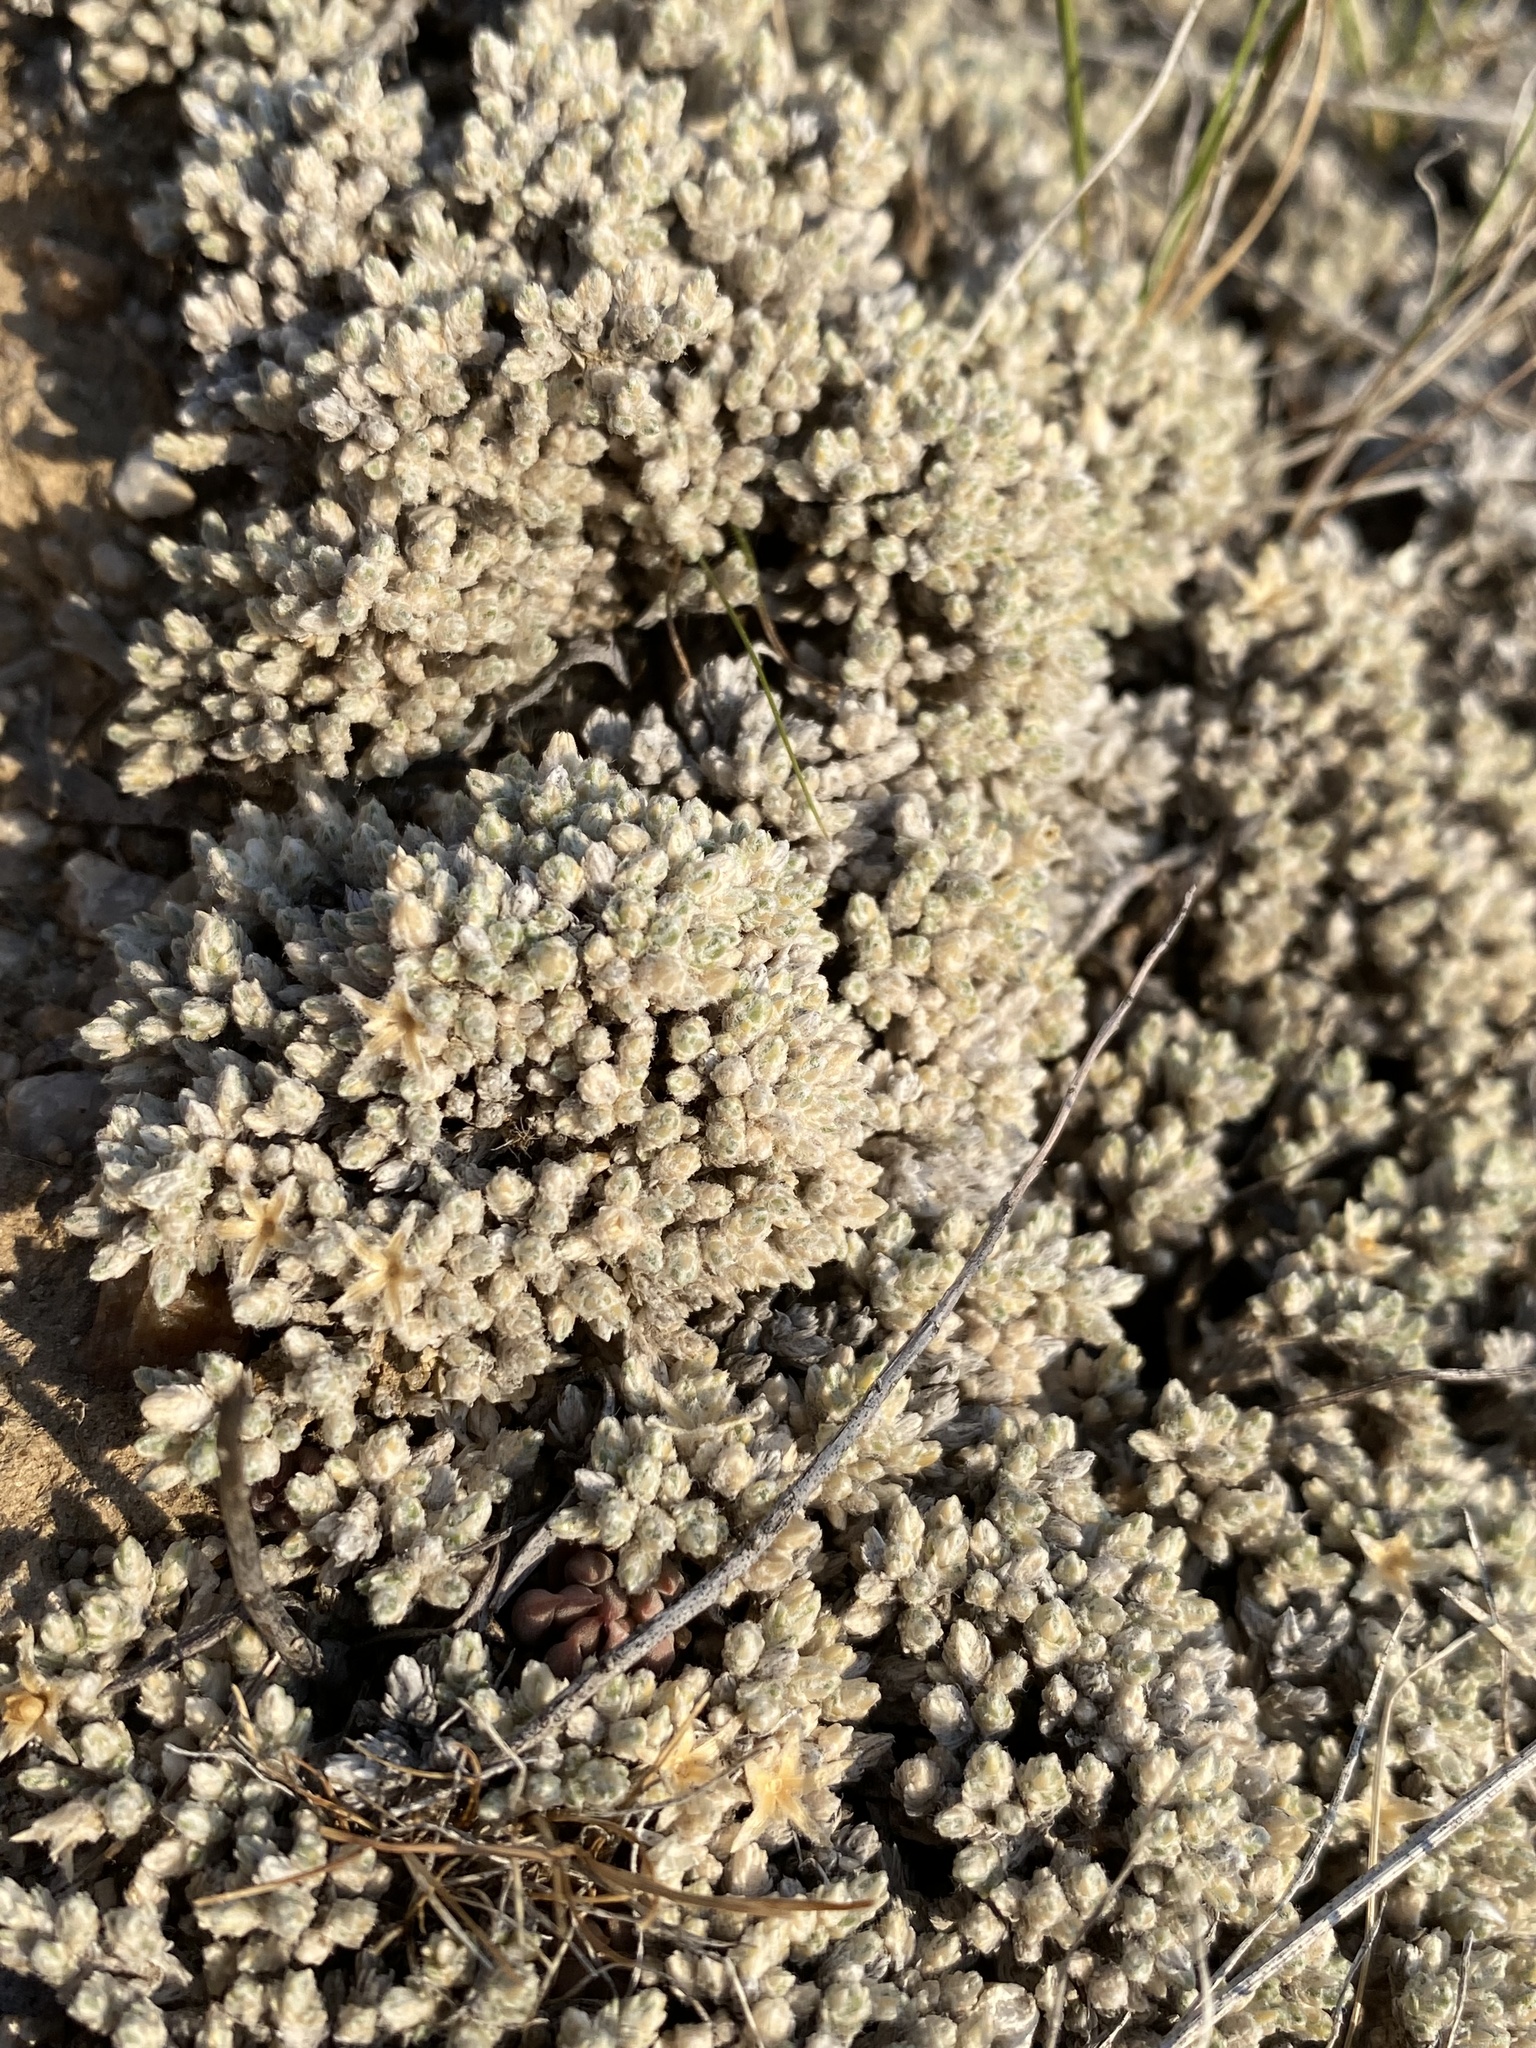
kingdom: Plantae
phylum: Tracheophyta
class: Magnoliopsida
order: Ericales
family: Polemoniaceae
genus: Phlox
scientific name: Phlox hoodii
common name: Moss phlox
